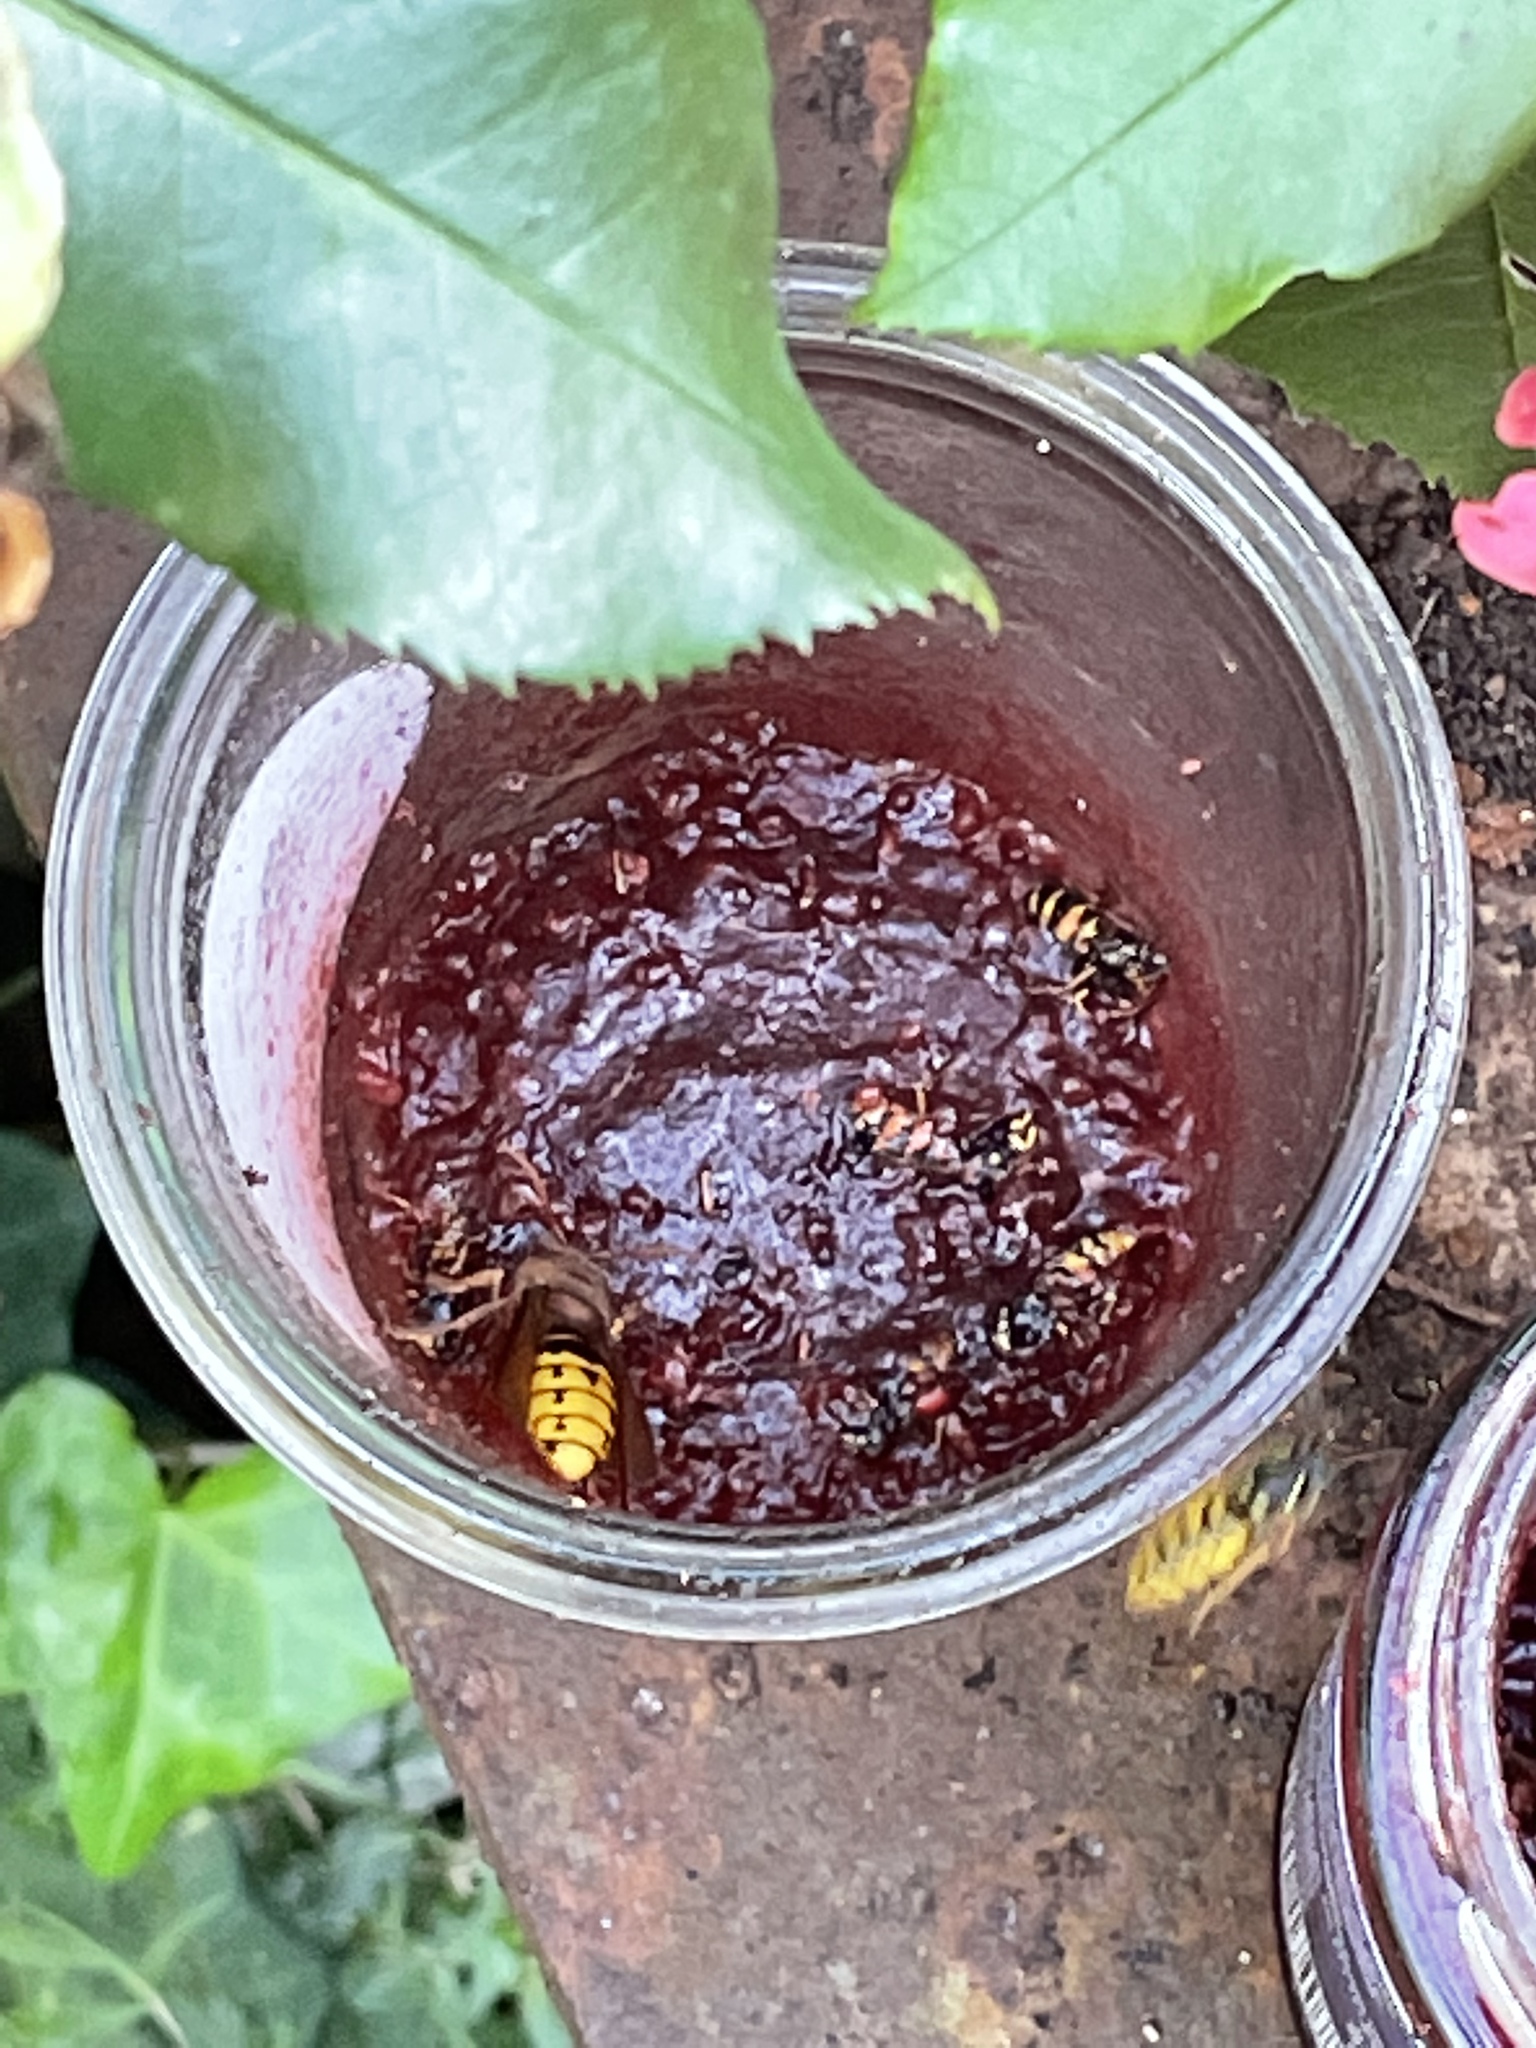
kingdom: Animalia
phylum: Arthropoda
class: Insecta
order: Hymenoptera
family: Vespidae
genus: Vespa
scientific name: Vespa crabro
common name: Hornet
